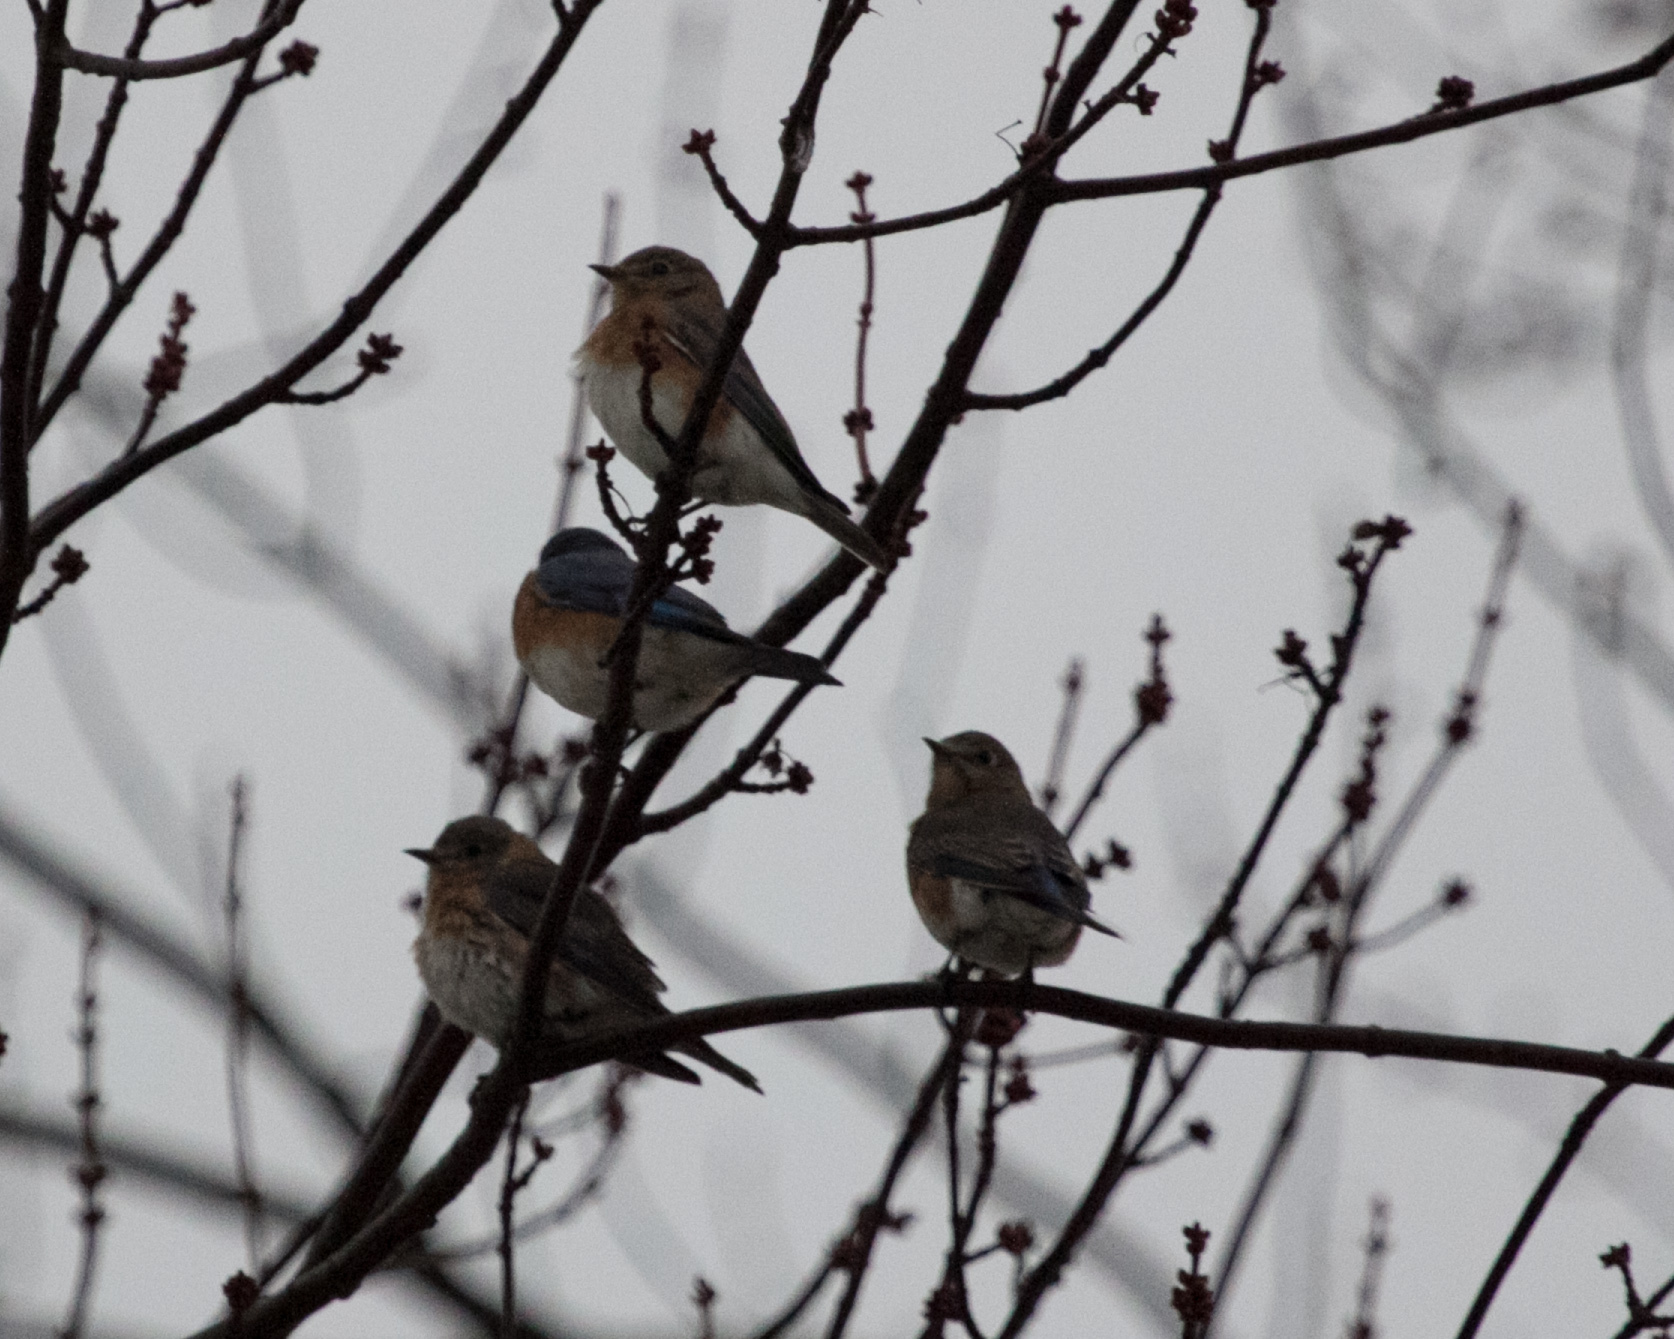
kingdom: Animalia
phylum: Chordata
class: Aves
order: Passeriformes
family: Turdidae
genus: Sialia
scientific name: Sialia sialis
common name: Eastern bluebird
